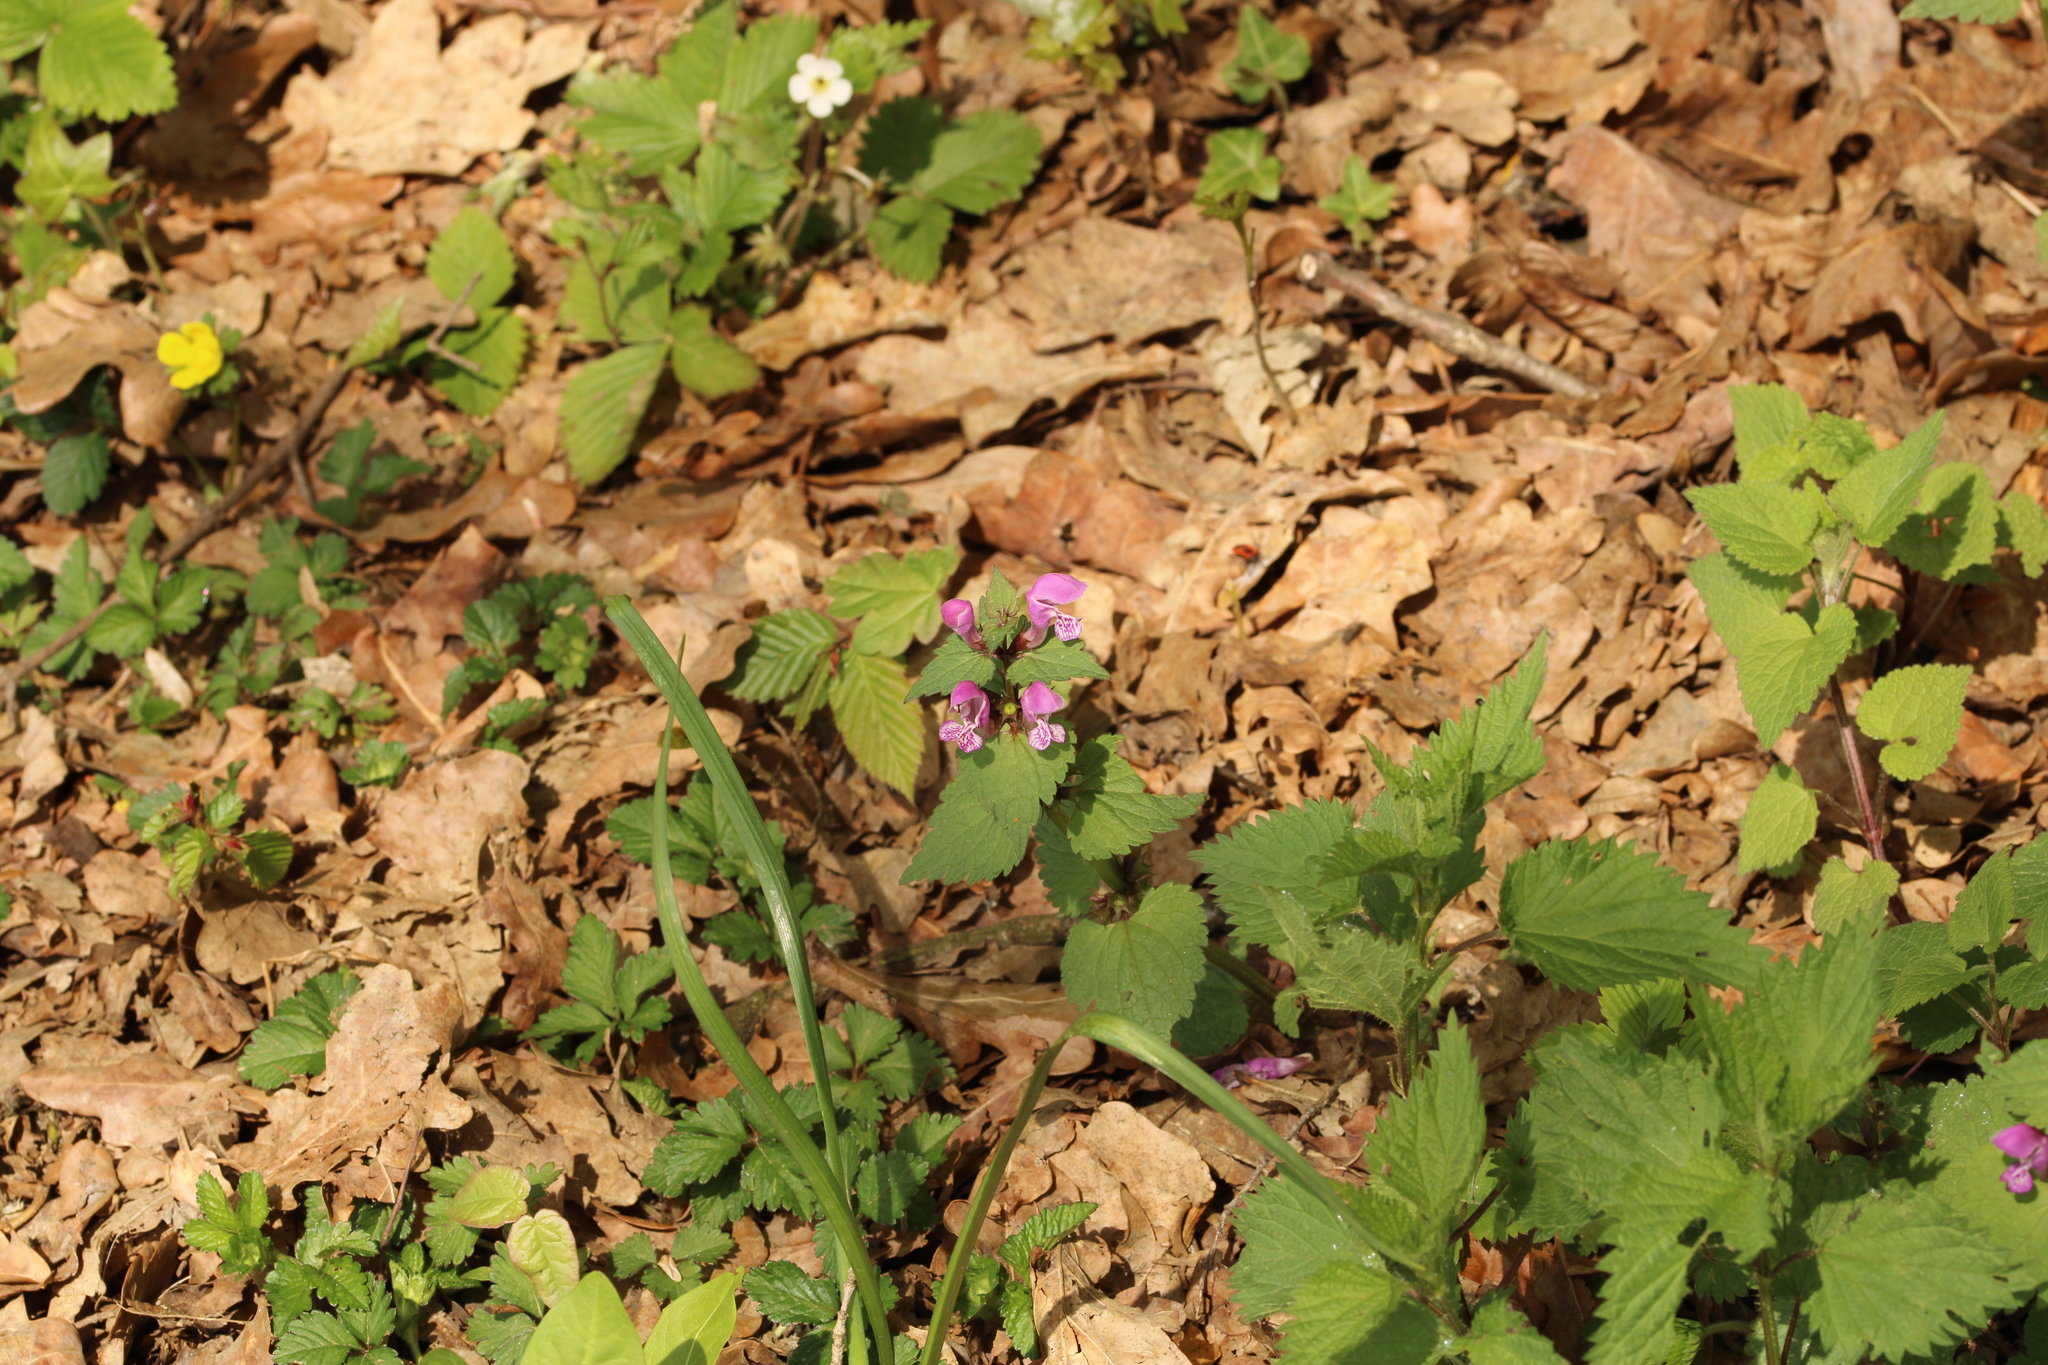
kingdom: Plantae
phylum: Tracheophyta
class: Magnoliopsida
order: Lamiales
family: Lamiaceae
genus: Lamium
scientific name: Lamium maculatum
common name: Spotted dead-nettle
